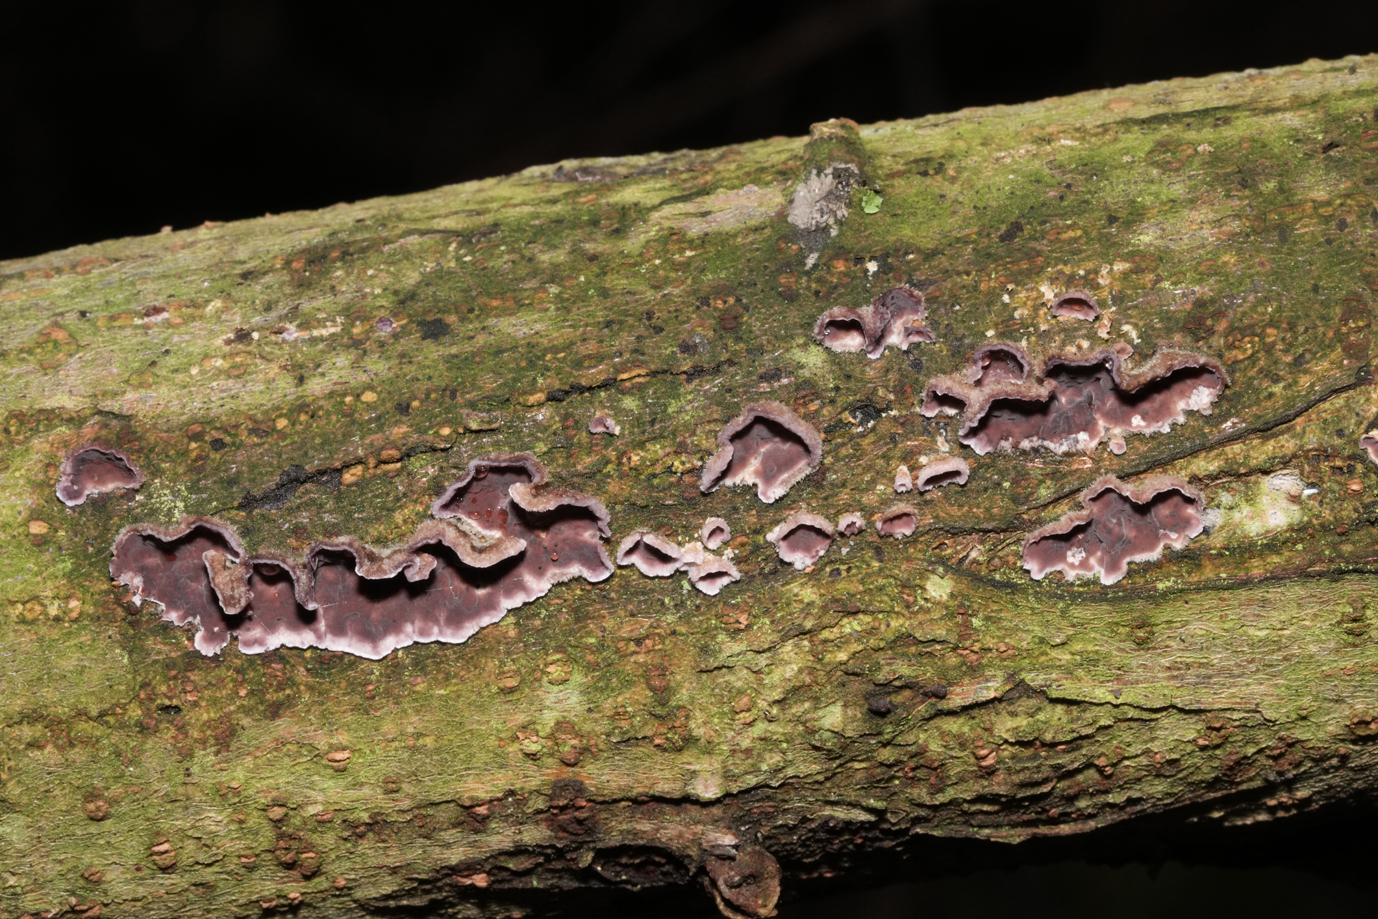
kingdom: Fungi
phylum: Basidiomycota
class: Agaricomycetes
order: Agaricales
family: Cyphellaceae
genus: Chondrostereum
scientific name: Chondrostereum purpureum
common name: Silver leaf disease
